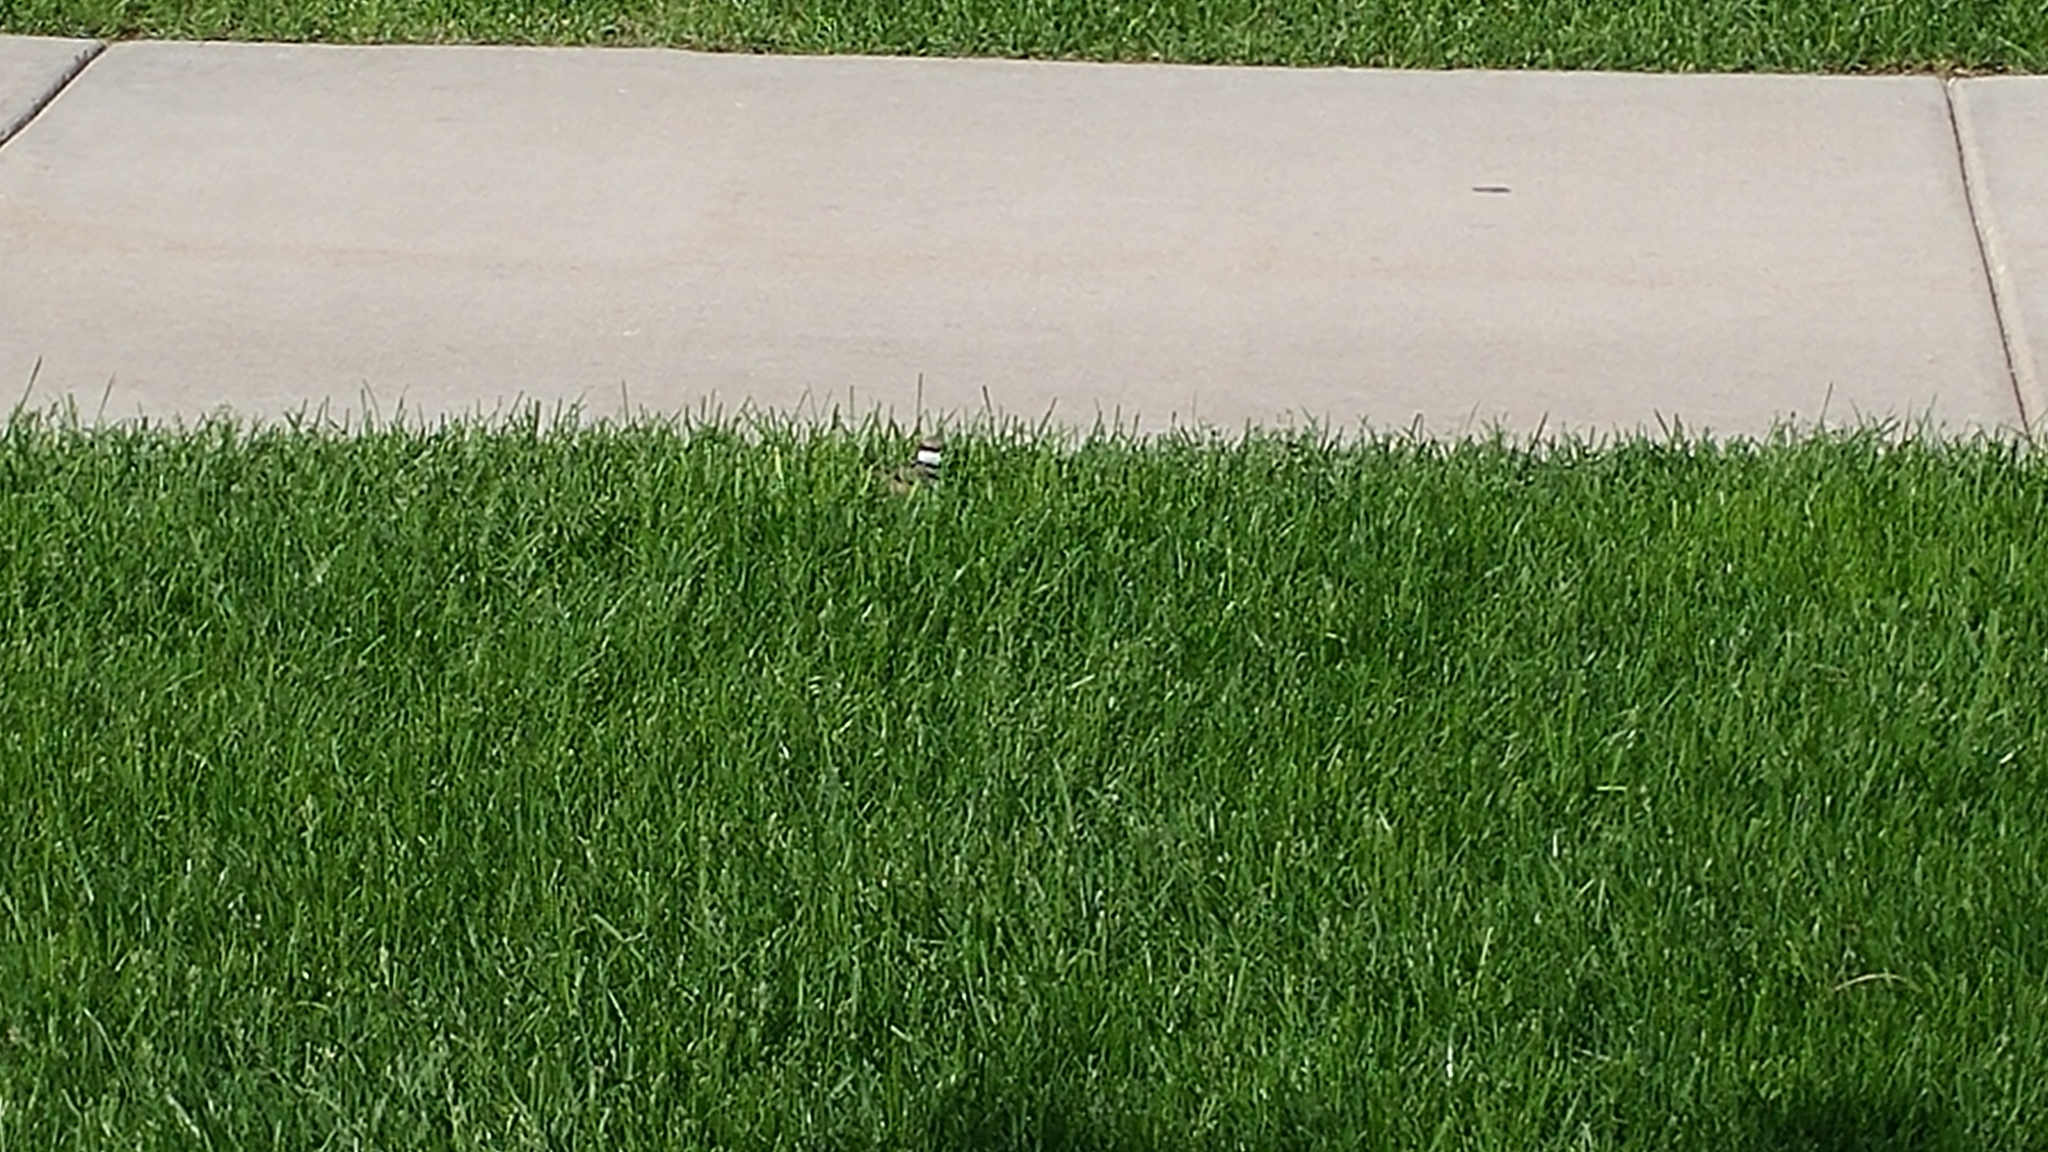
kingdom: Animalia
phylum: Chordata
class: Aves
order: Charadriiformes
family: Charadriidae
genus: Charadrius
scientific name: Charadrius vociferus
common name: Killdeer
